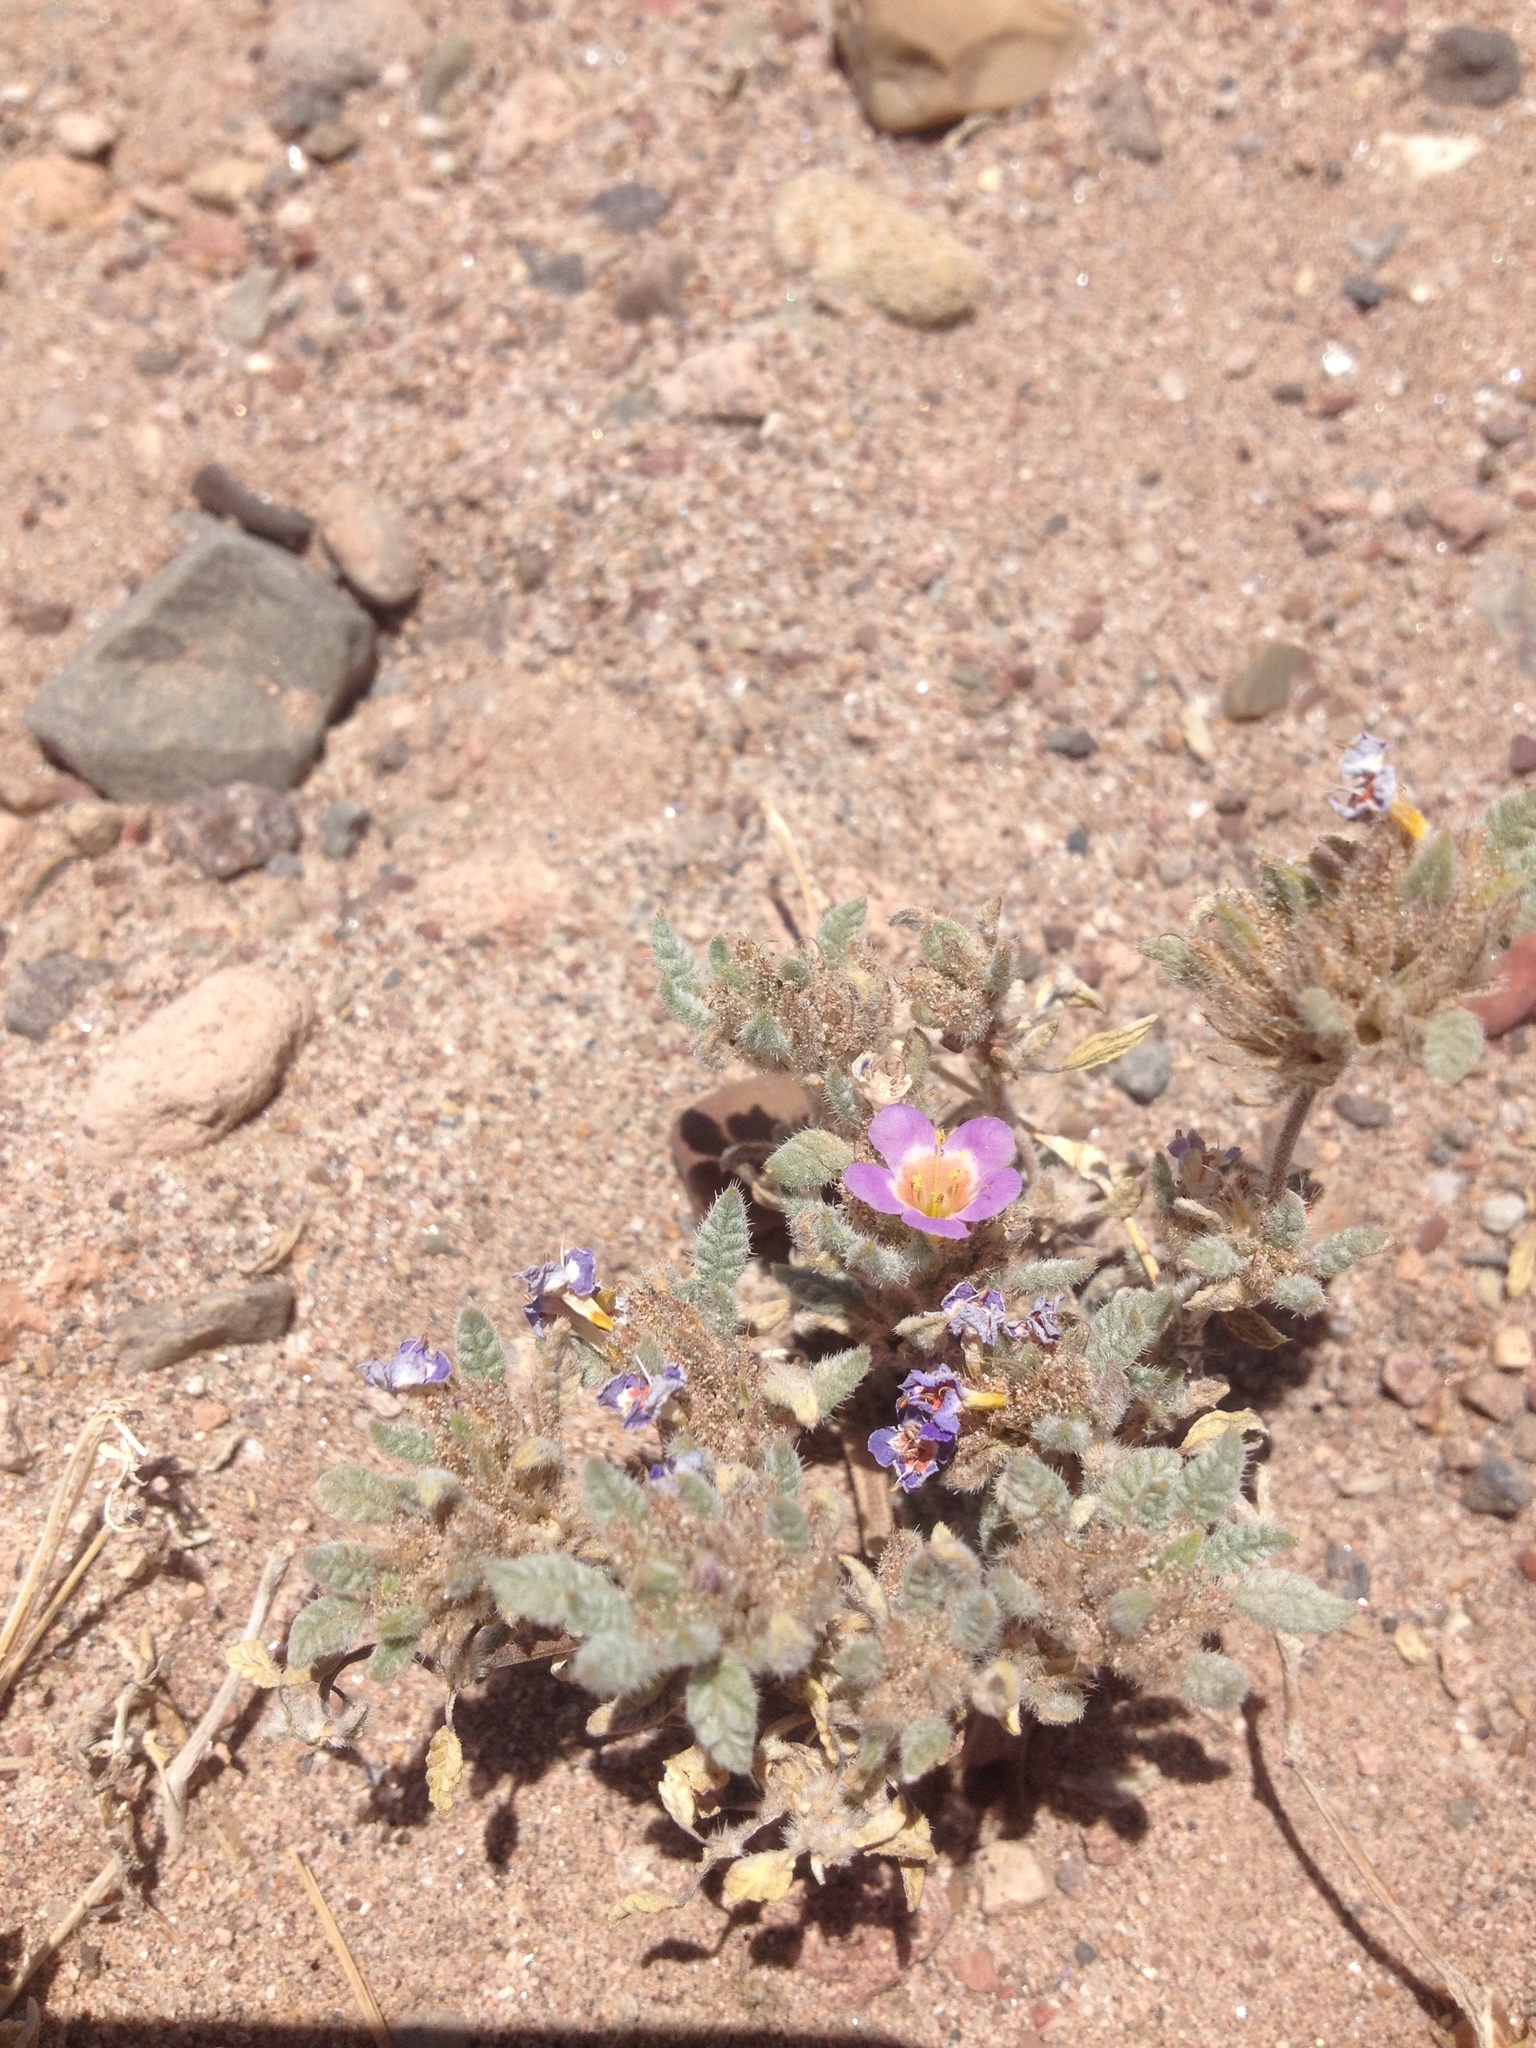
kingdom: Plantae
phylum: Tracheophyta
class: Magnoliopsida
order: Boraginales
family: Ehretiaceae
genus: Tiquilia
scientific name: Tiquilia atacamensis
